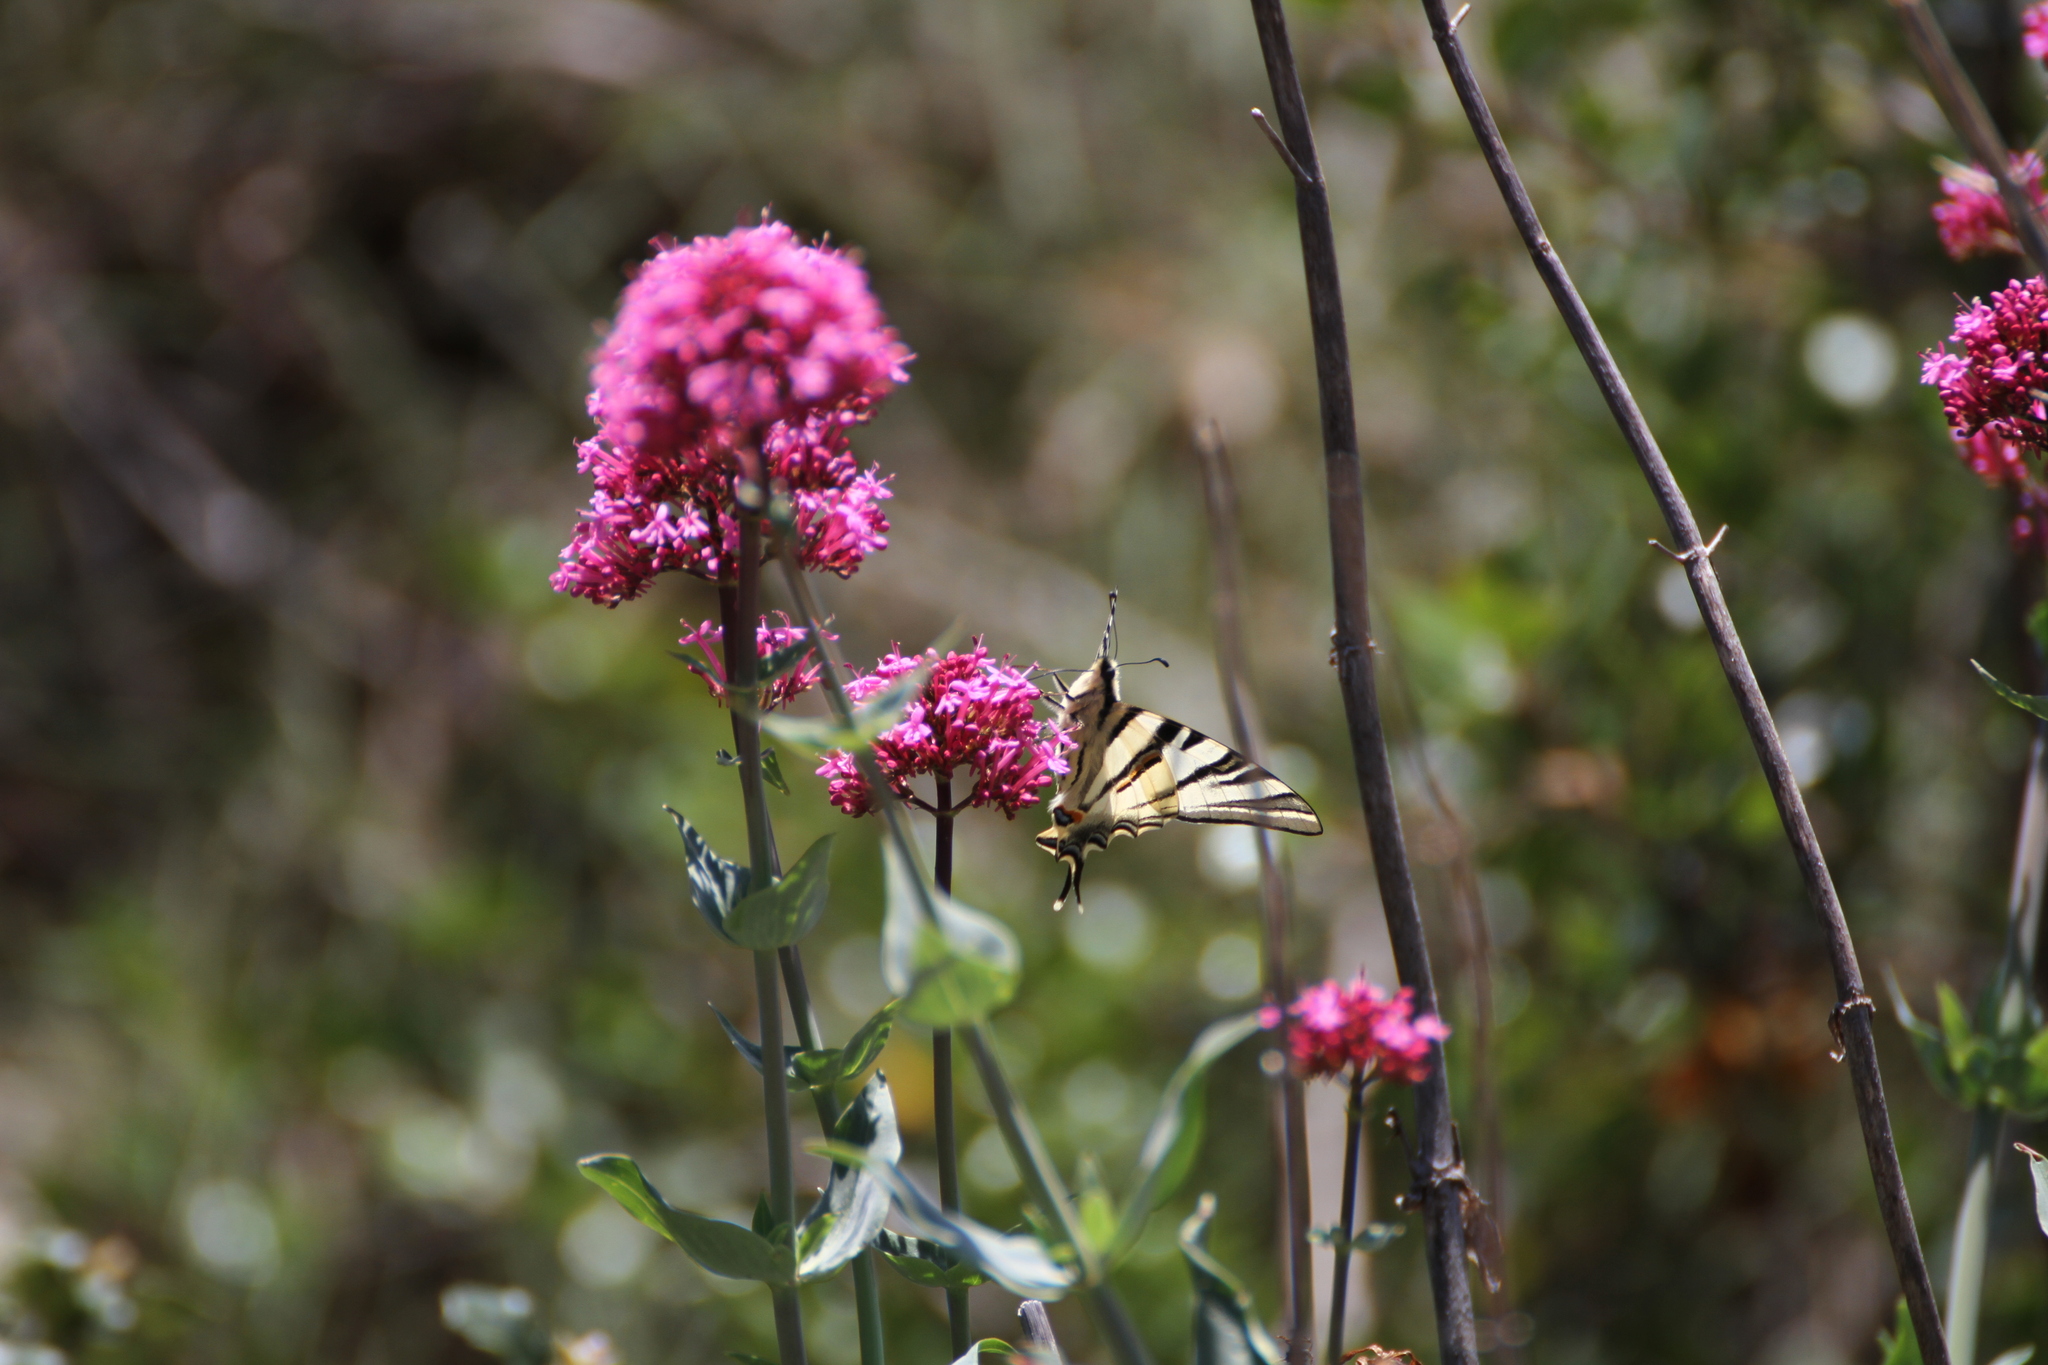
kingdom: Animalia
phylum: Arthropoda
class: Insecta
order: Lepidoptera
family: Papilionidae
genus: Iphiclides
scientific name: Iphiclides podalirius
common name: Scarce swallowtail
